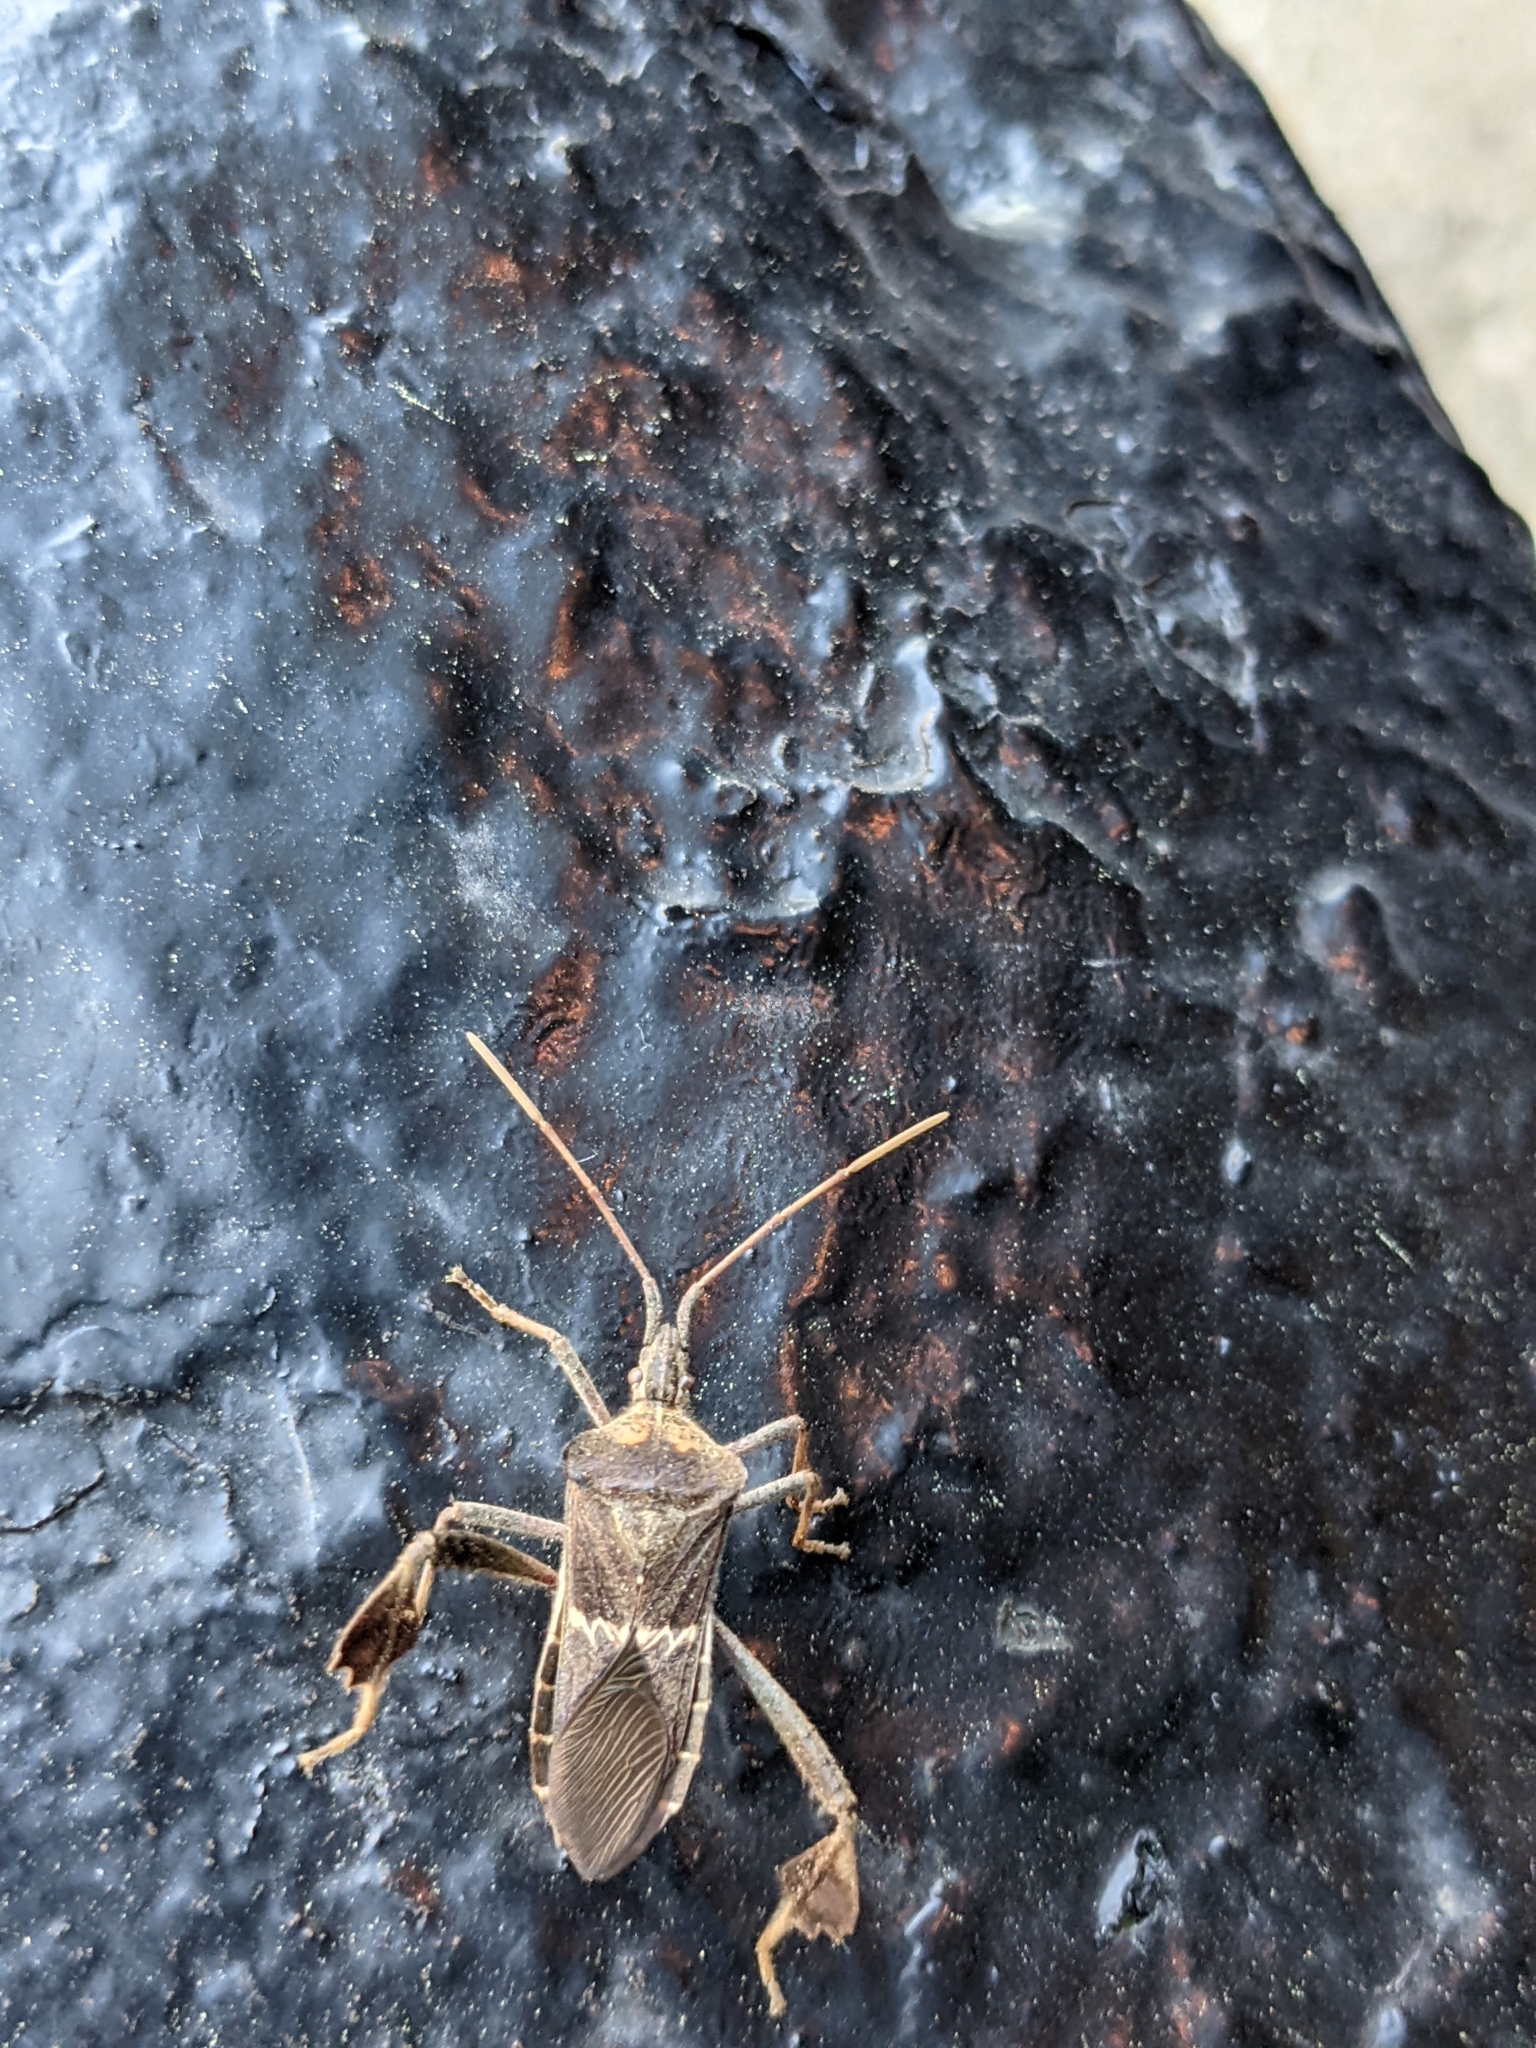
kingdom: Animalia
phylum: Arthropoda
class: Insecta
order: Hemiptera
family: Coreidae
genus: Leptoglossus
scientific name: Leptoglossus zonatus
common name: Large-legged bug
